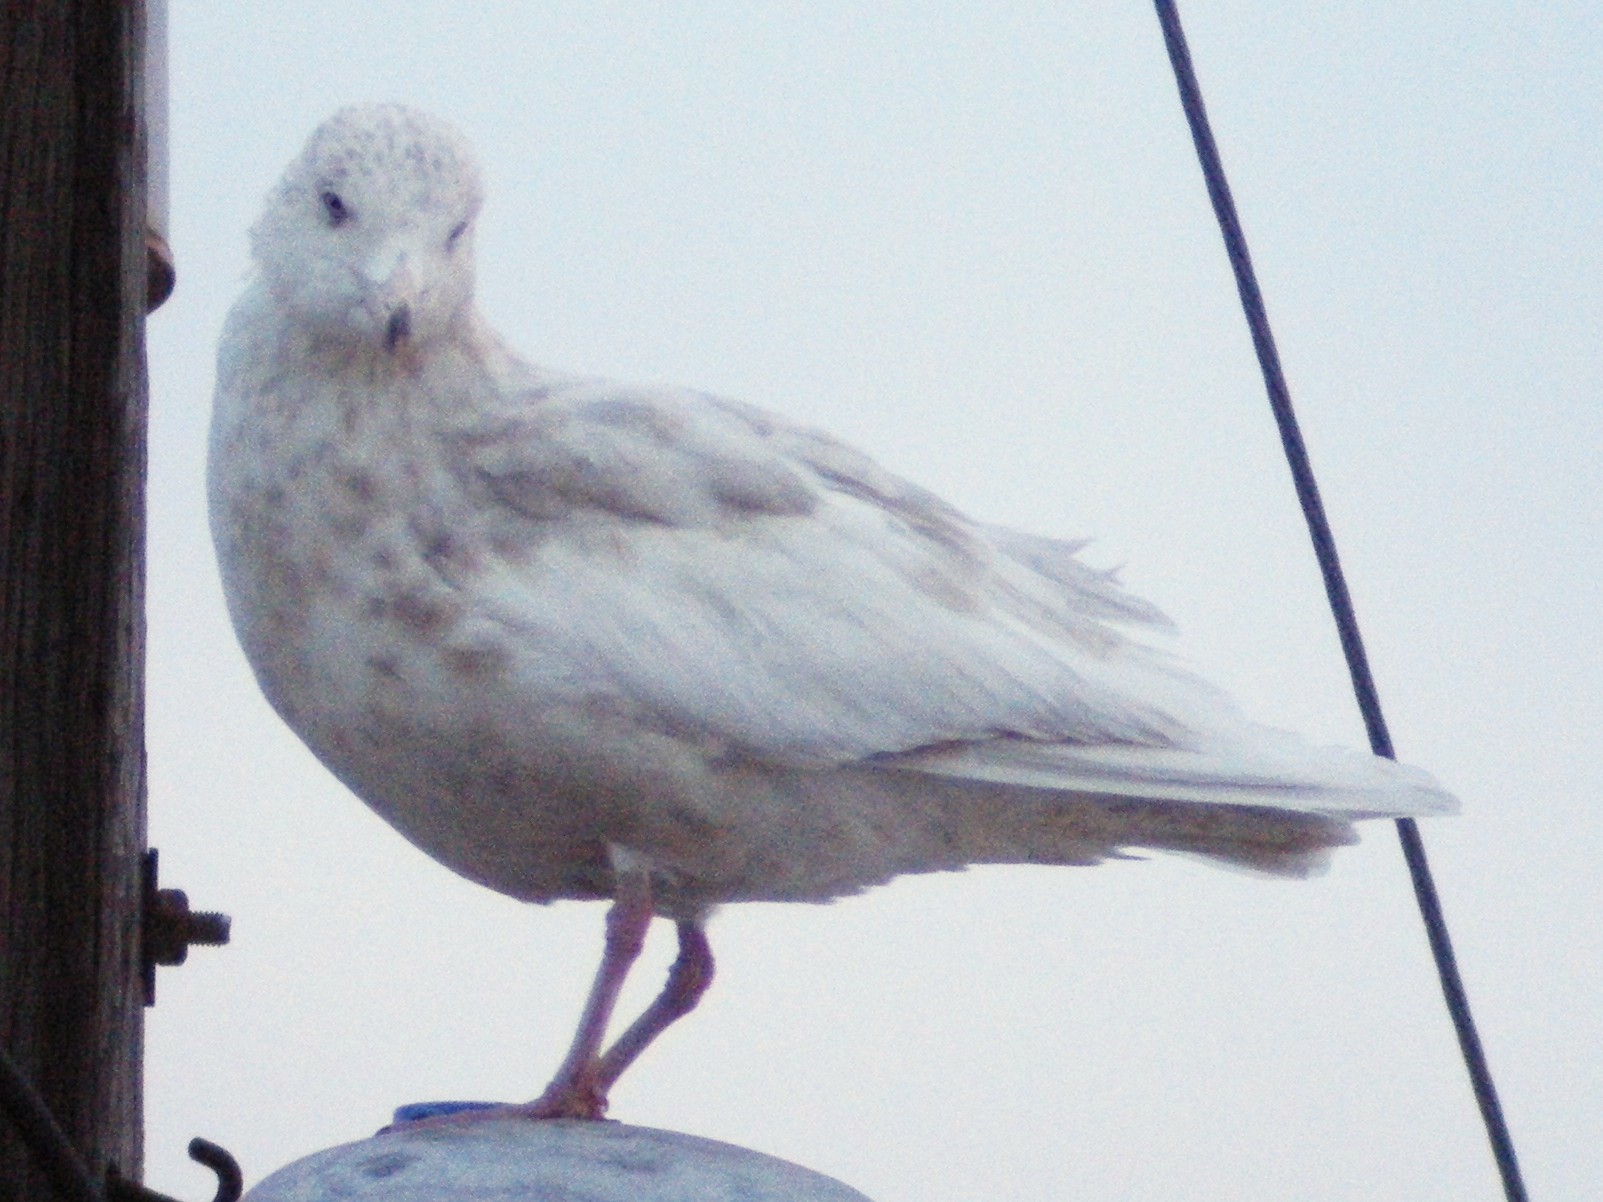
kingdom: Animalia
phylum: Chordata
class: Aves
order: Charadriiformes
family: Laridae
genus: Larus
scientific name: Larus hyperboreus
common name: Glaucous gull
